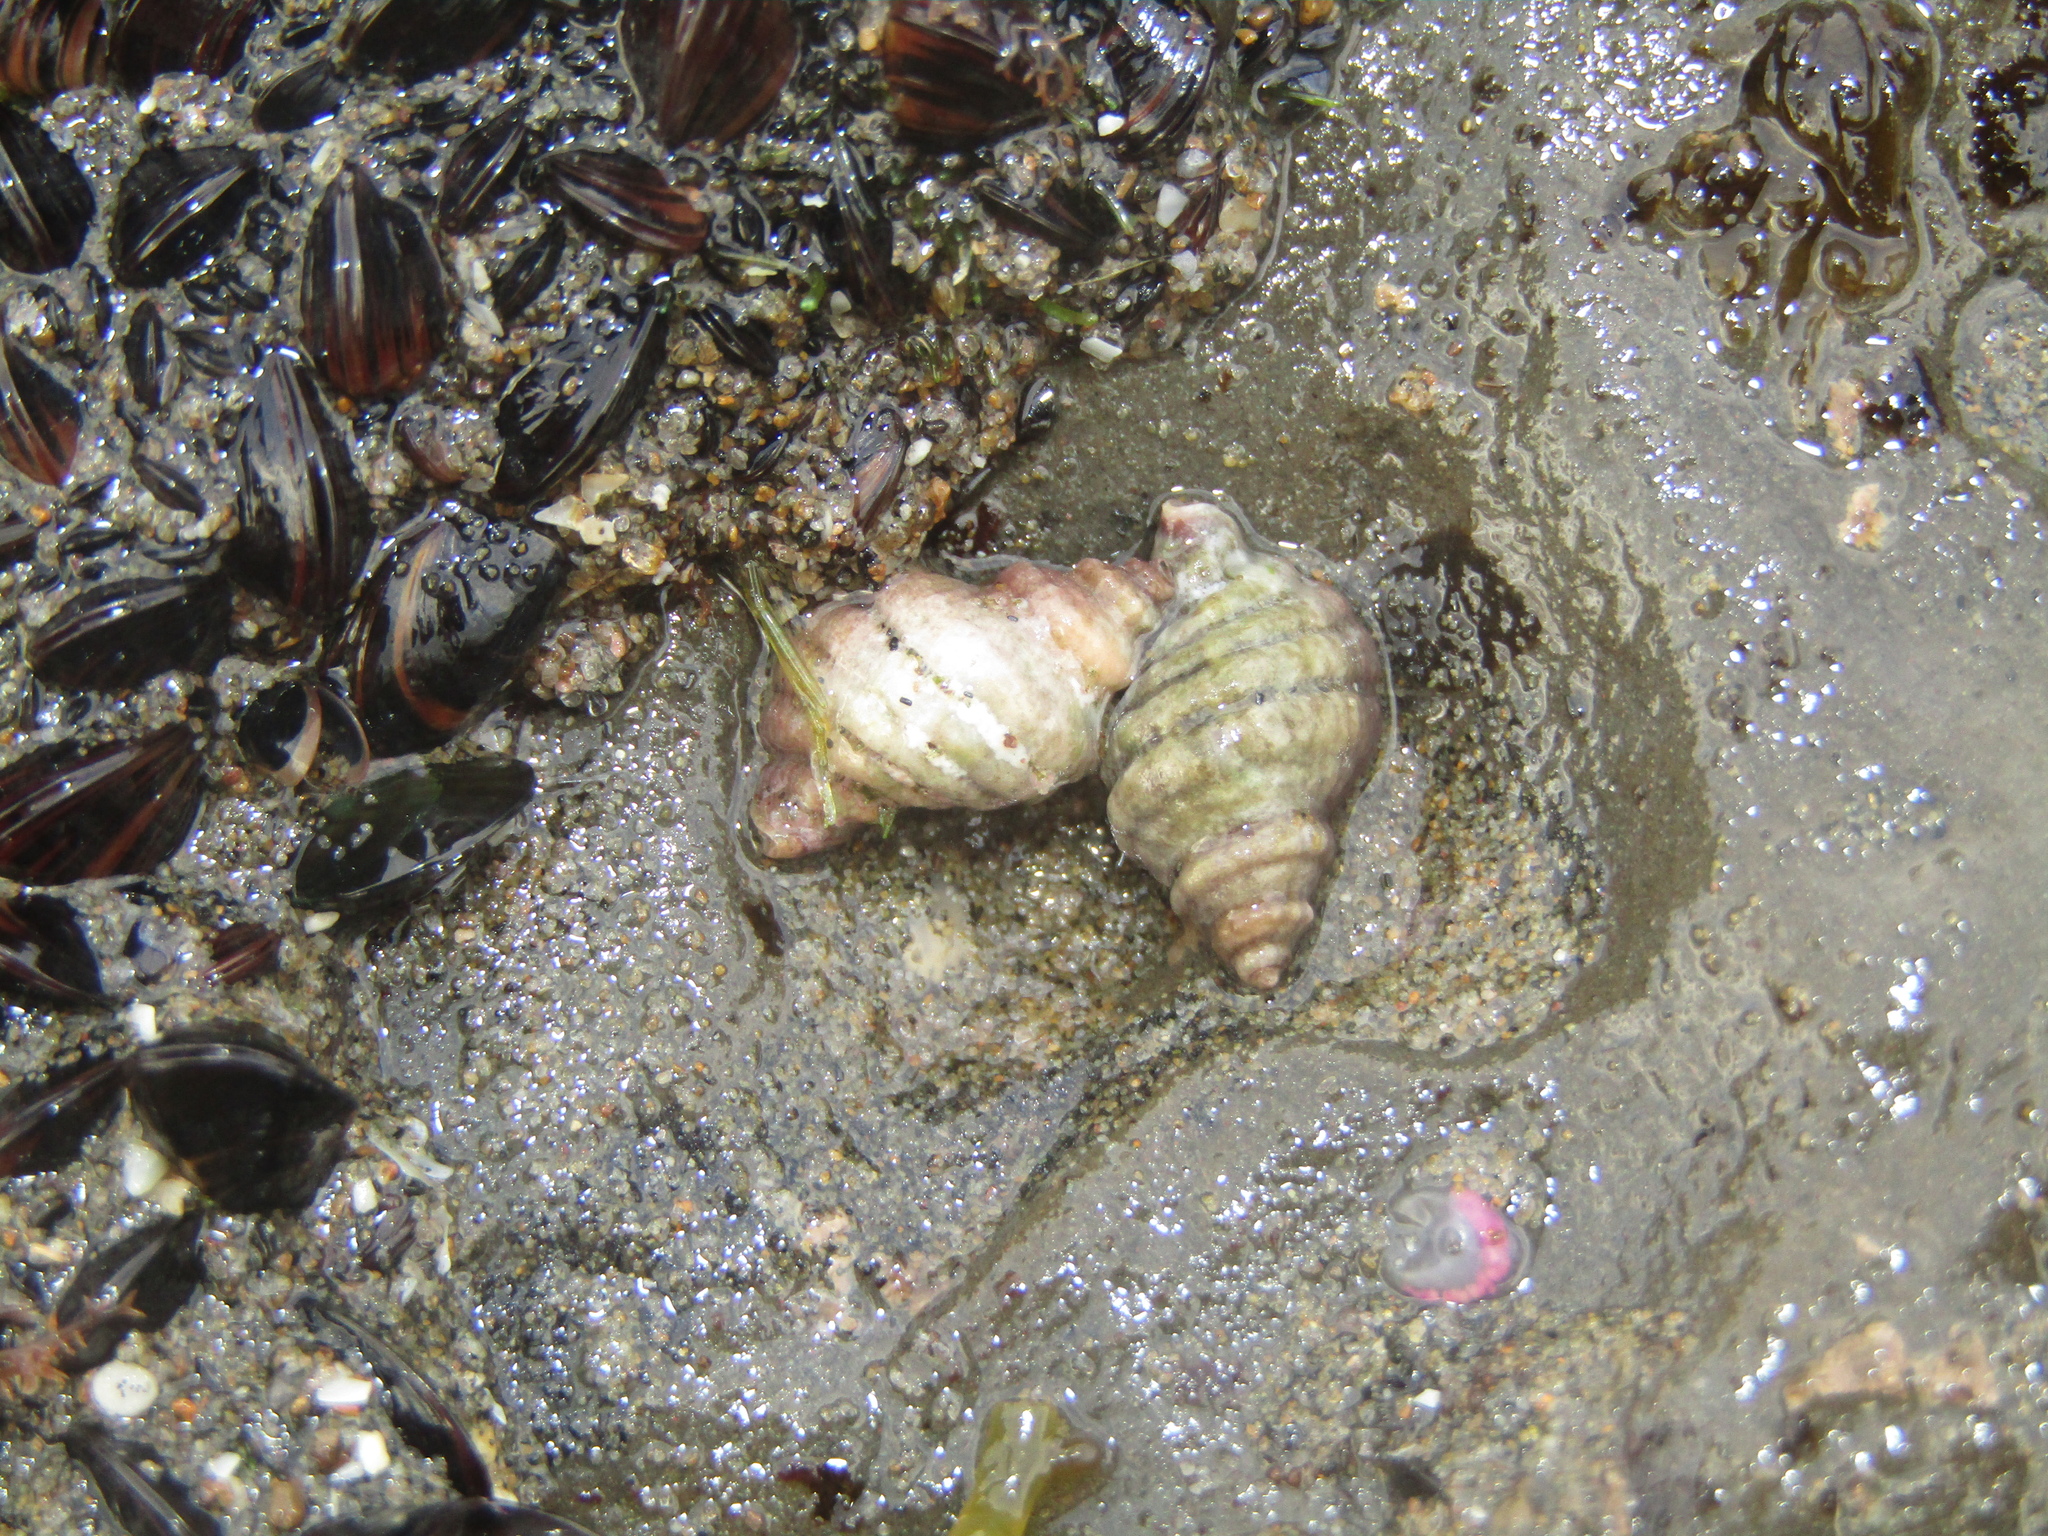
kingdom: Animalia
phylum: Mollusca
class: Gastropoda
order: Neogastropoda
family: Muricidae
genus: Paratrophon
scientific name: Paratrophon cheesemani
